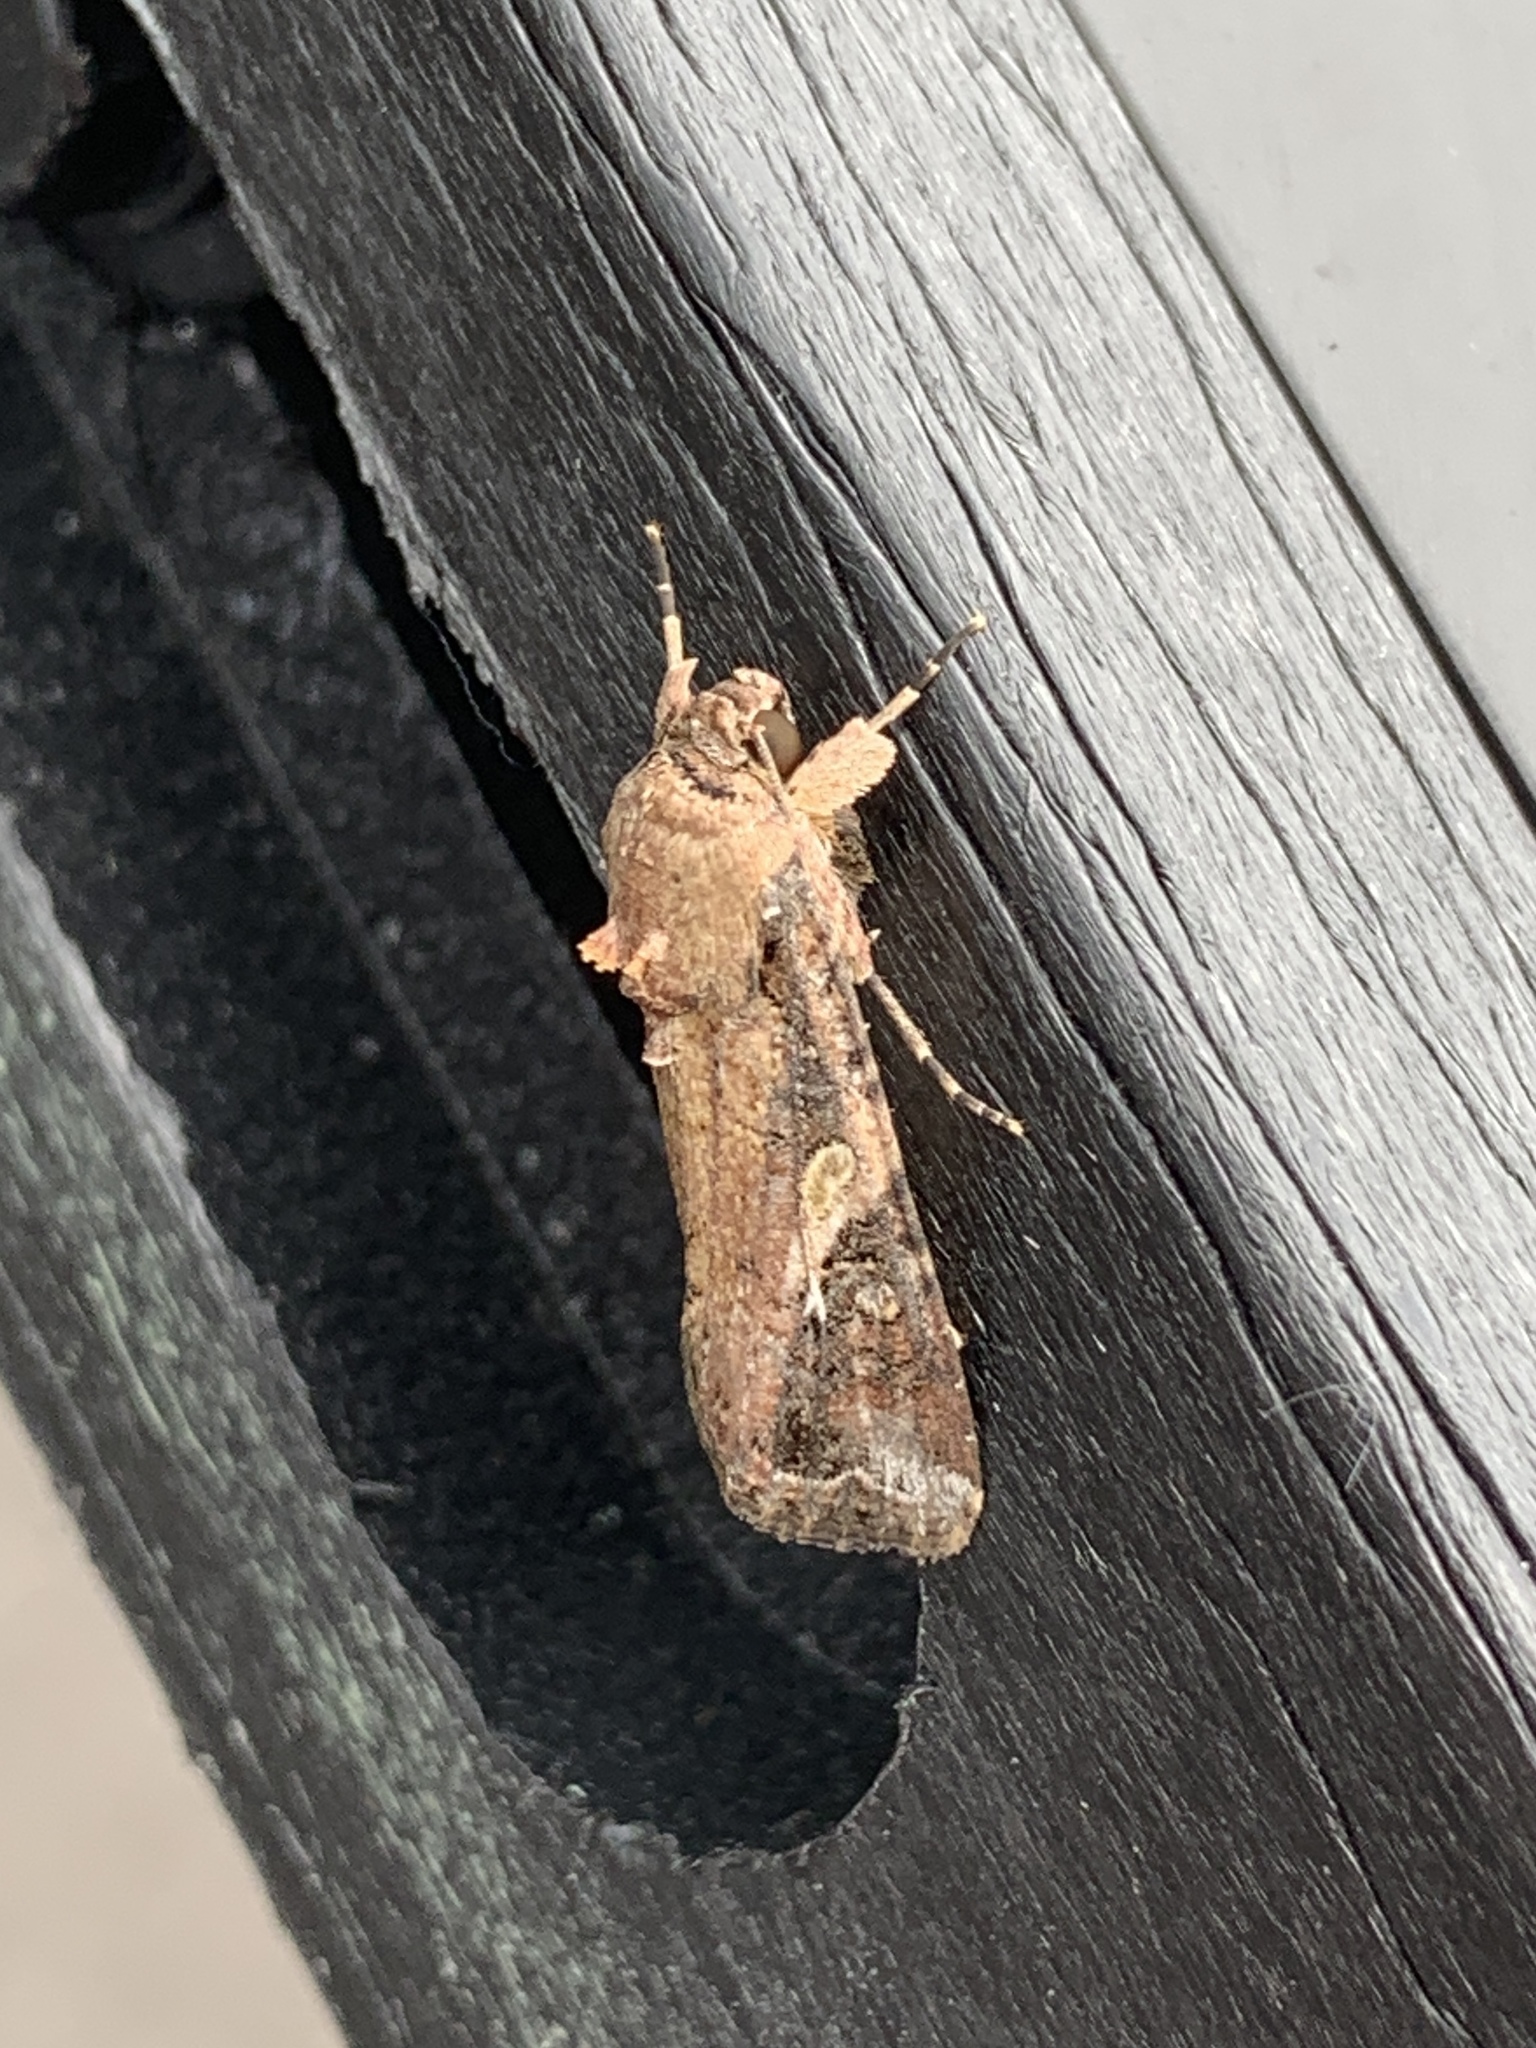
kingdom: Animalia
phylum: Arthropoda
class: Insecta
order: Lepidoptera
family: Noctuidae
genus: Spodoptera
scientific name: Spodoptera frugiperda
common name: Fall armyworm
